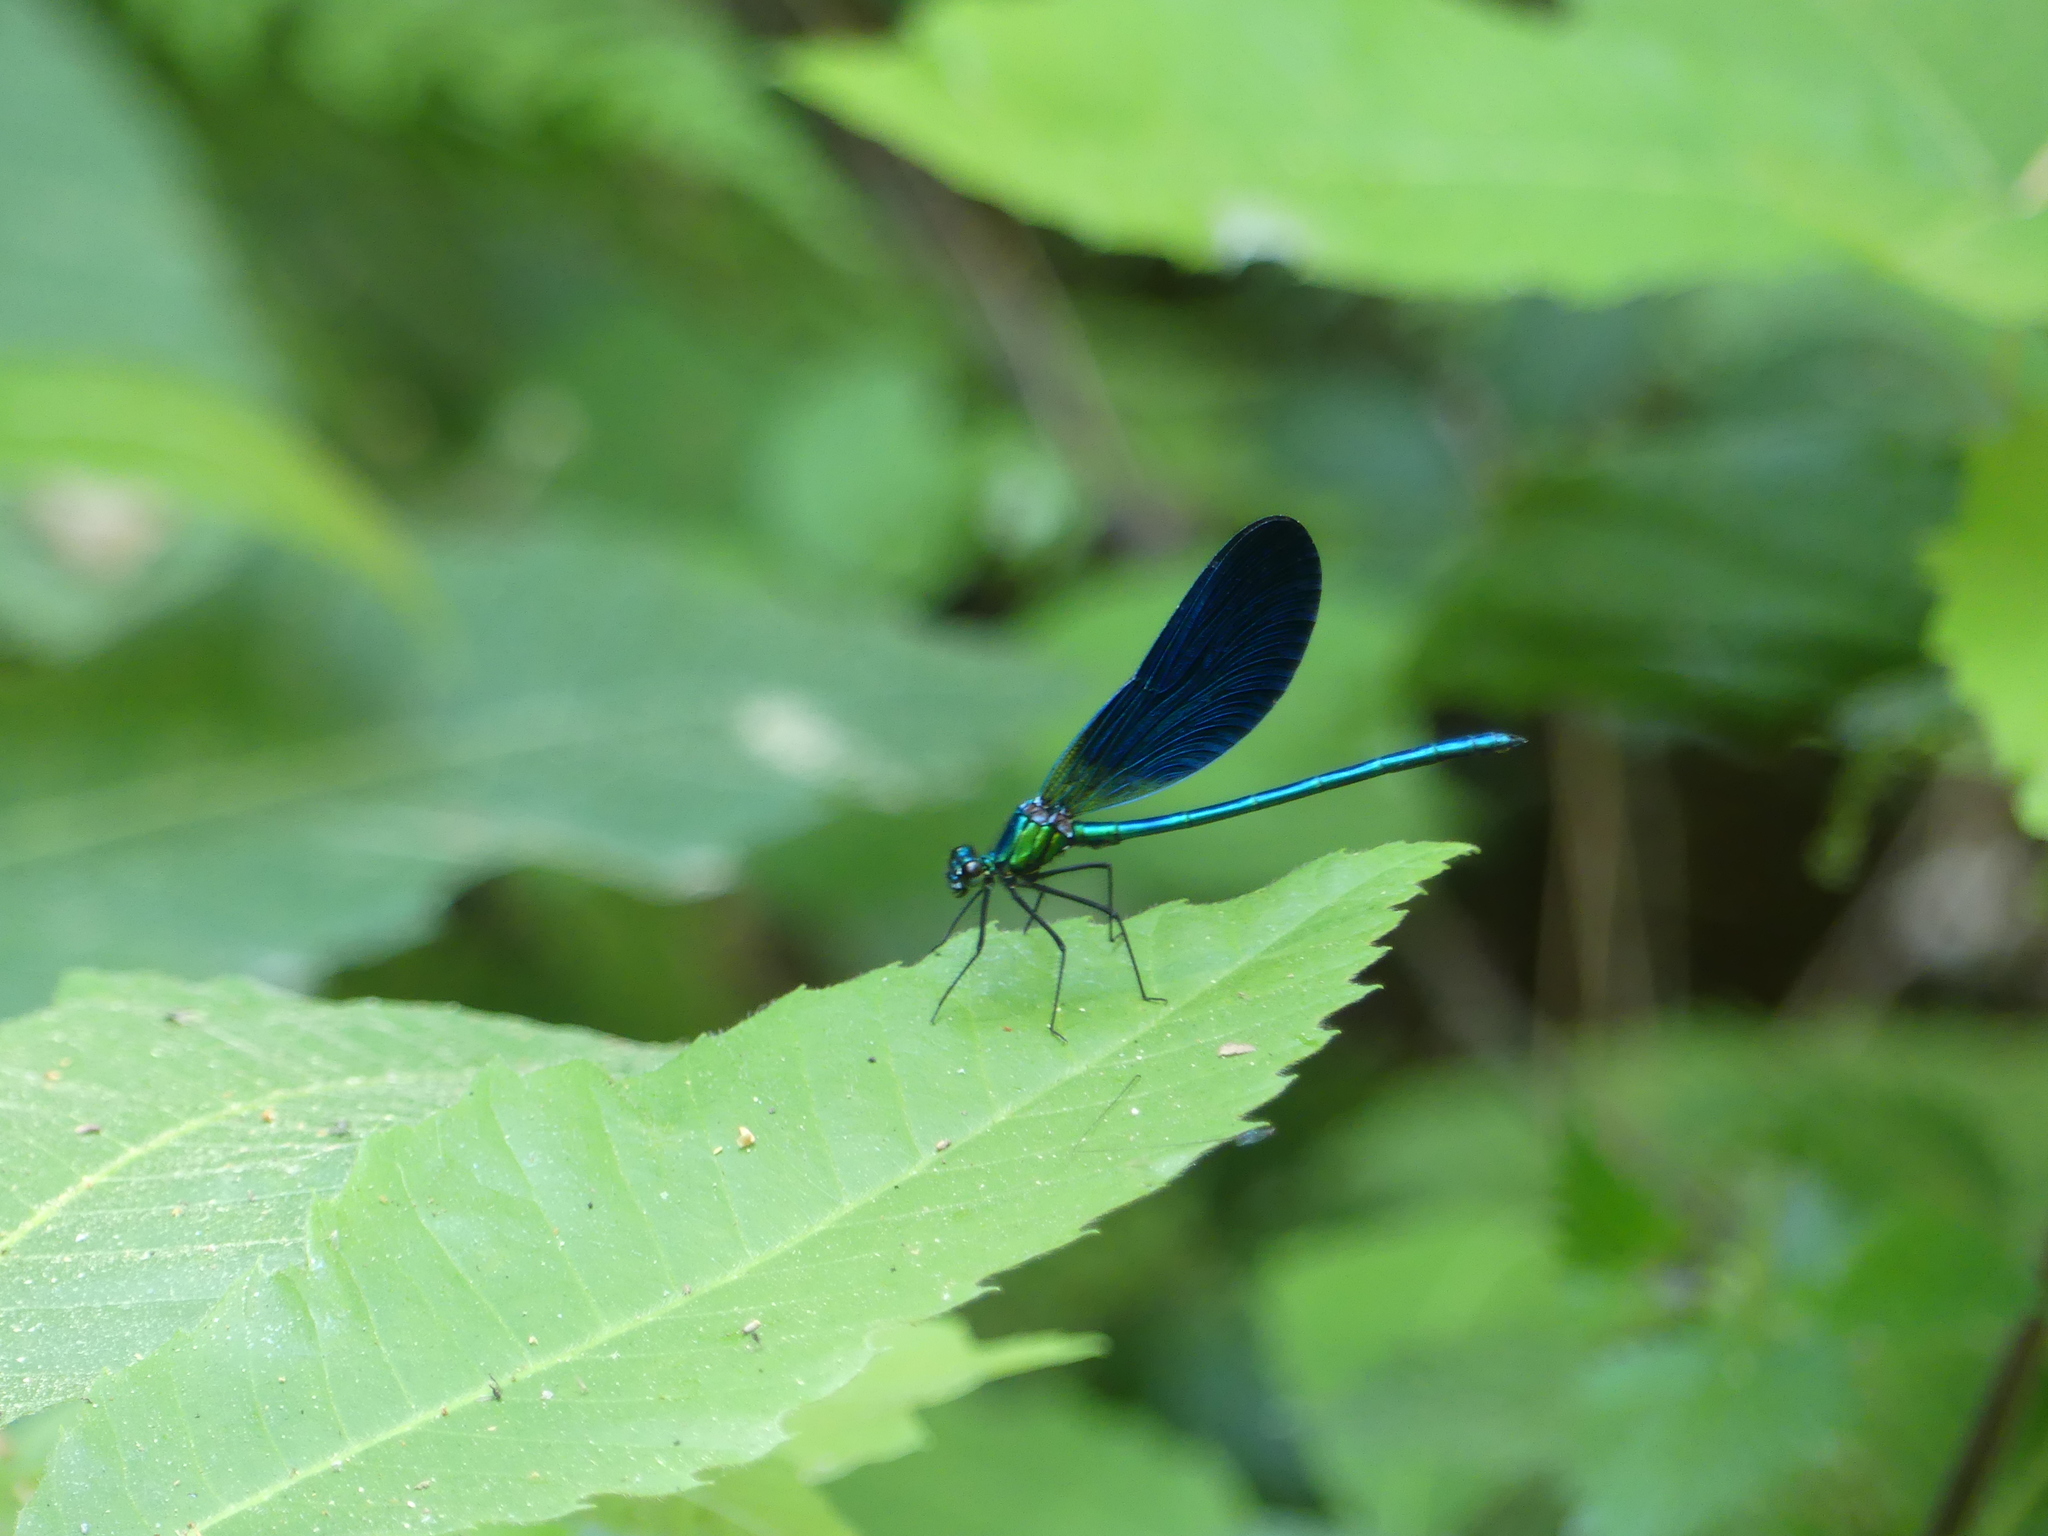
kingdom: Animalia
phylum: Arthropoda
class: Insecta
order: Odonata
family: Calopterygidae
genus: Calopteryx
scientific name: Calopteryx virgo
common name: Beautiful demoiselle
